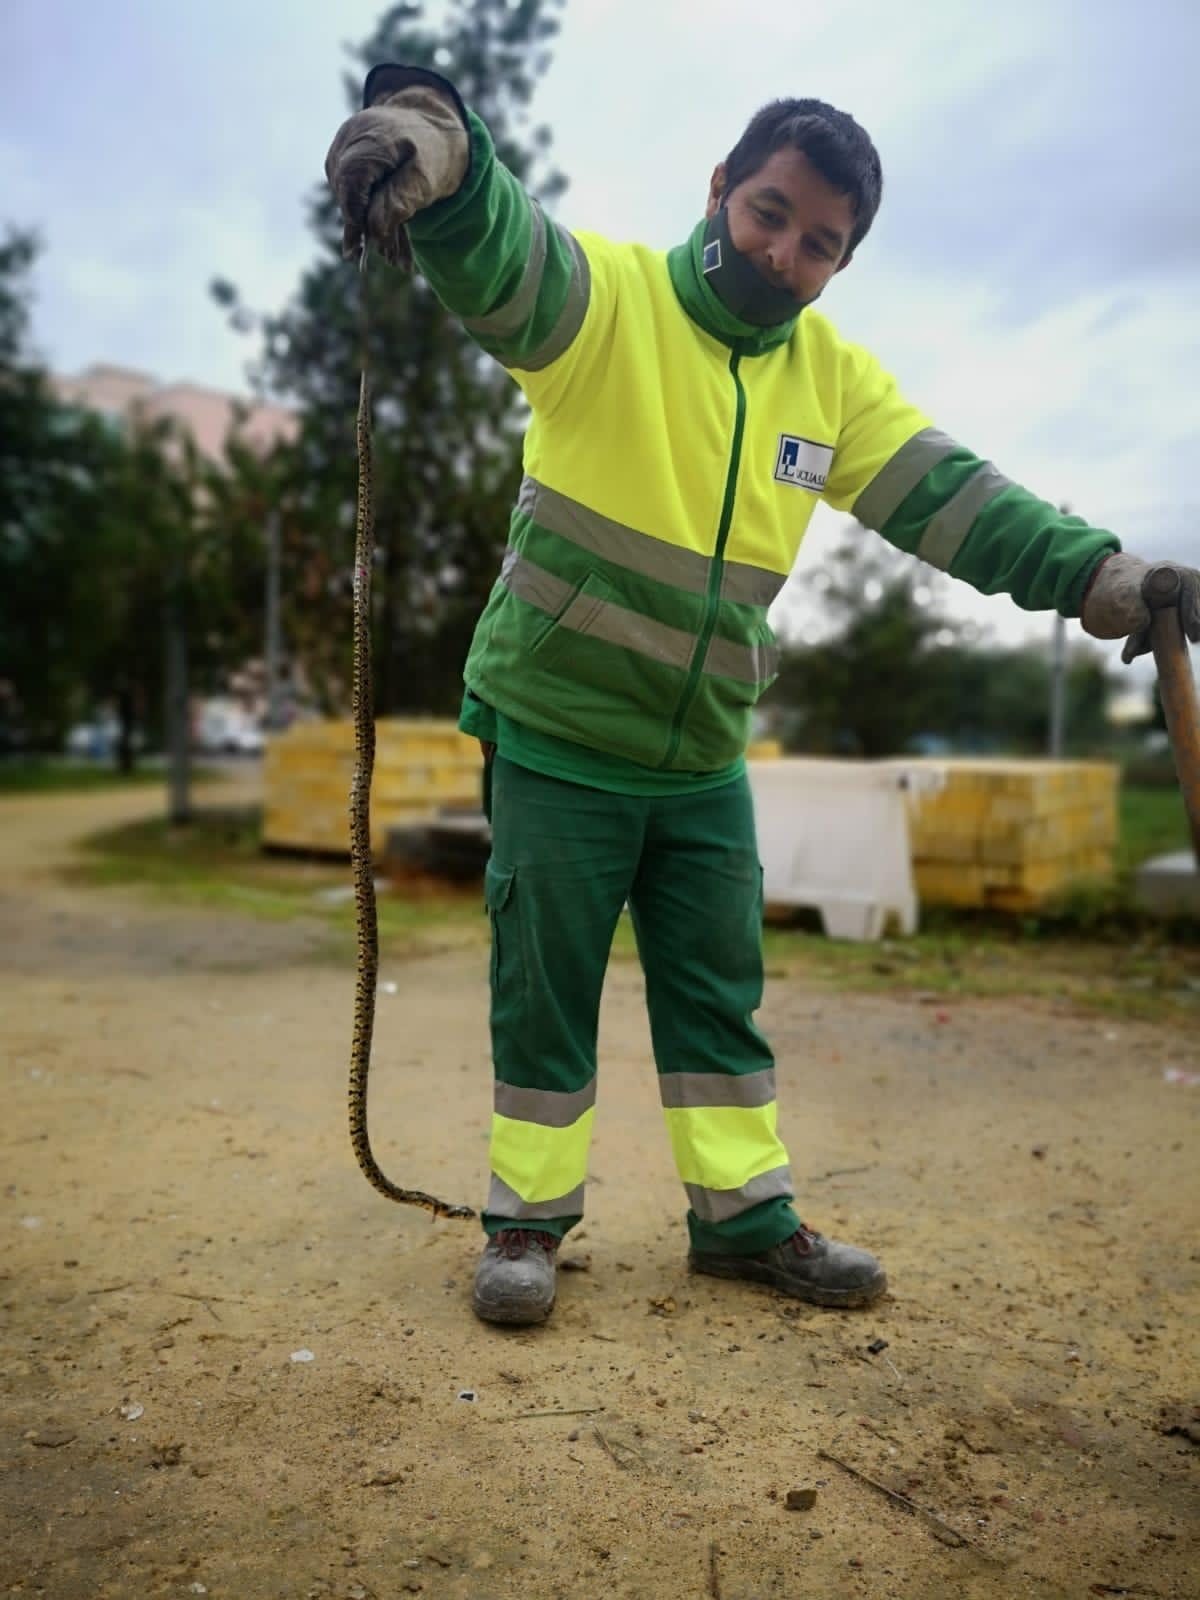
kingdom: Animalia
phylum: Chordata
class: Squamata
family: Colubridae
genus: Hemorrhois
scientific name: Hemorrhois hippocrepis
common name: Horseshoe whip snake
